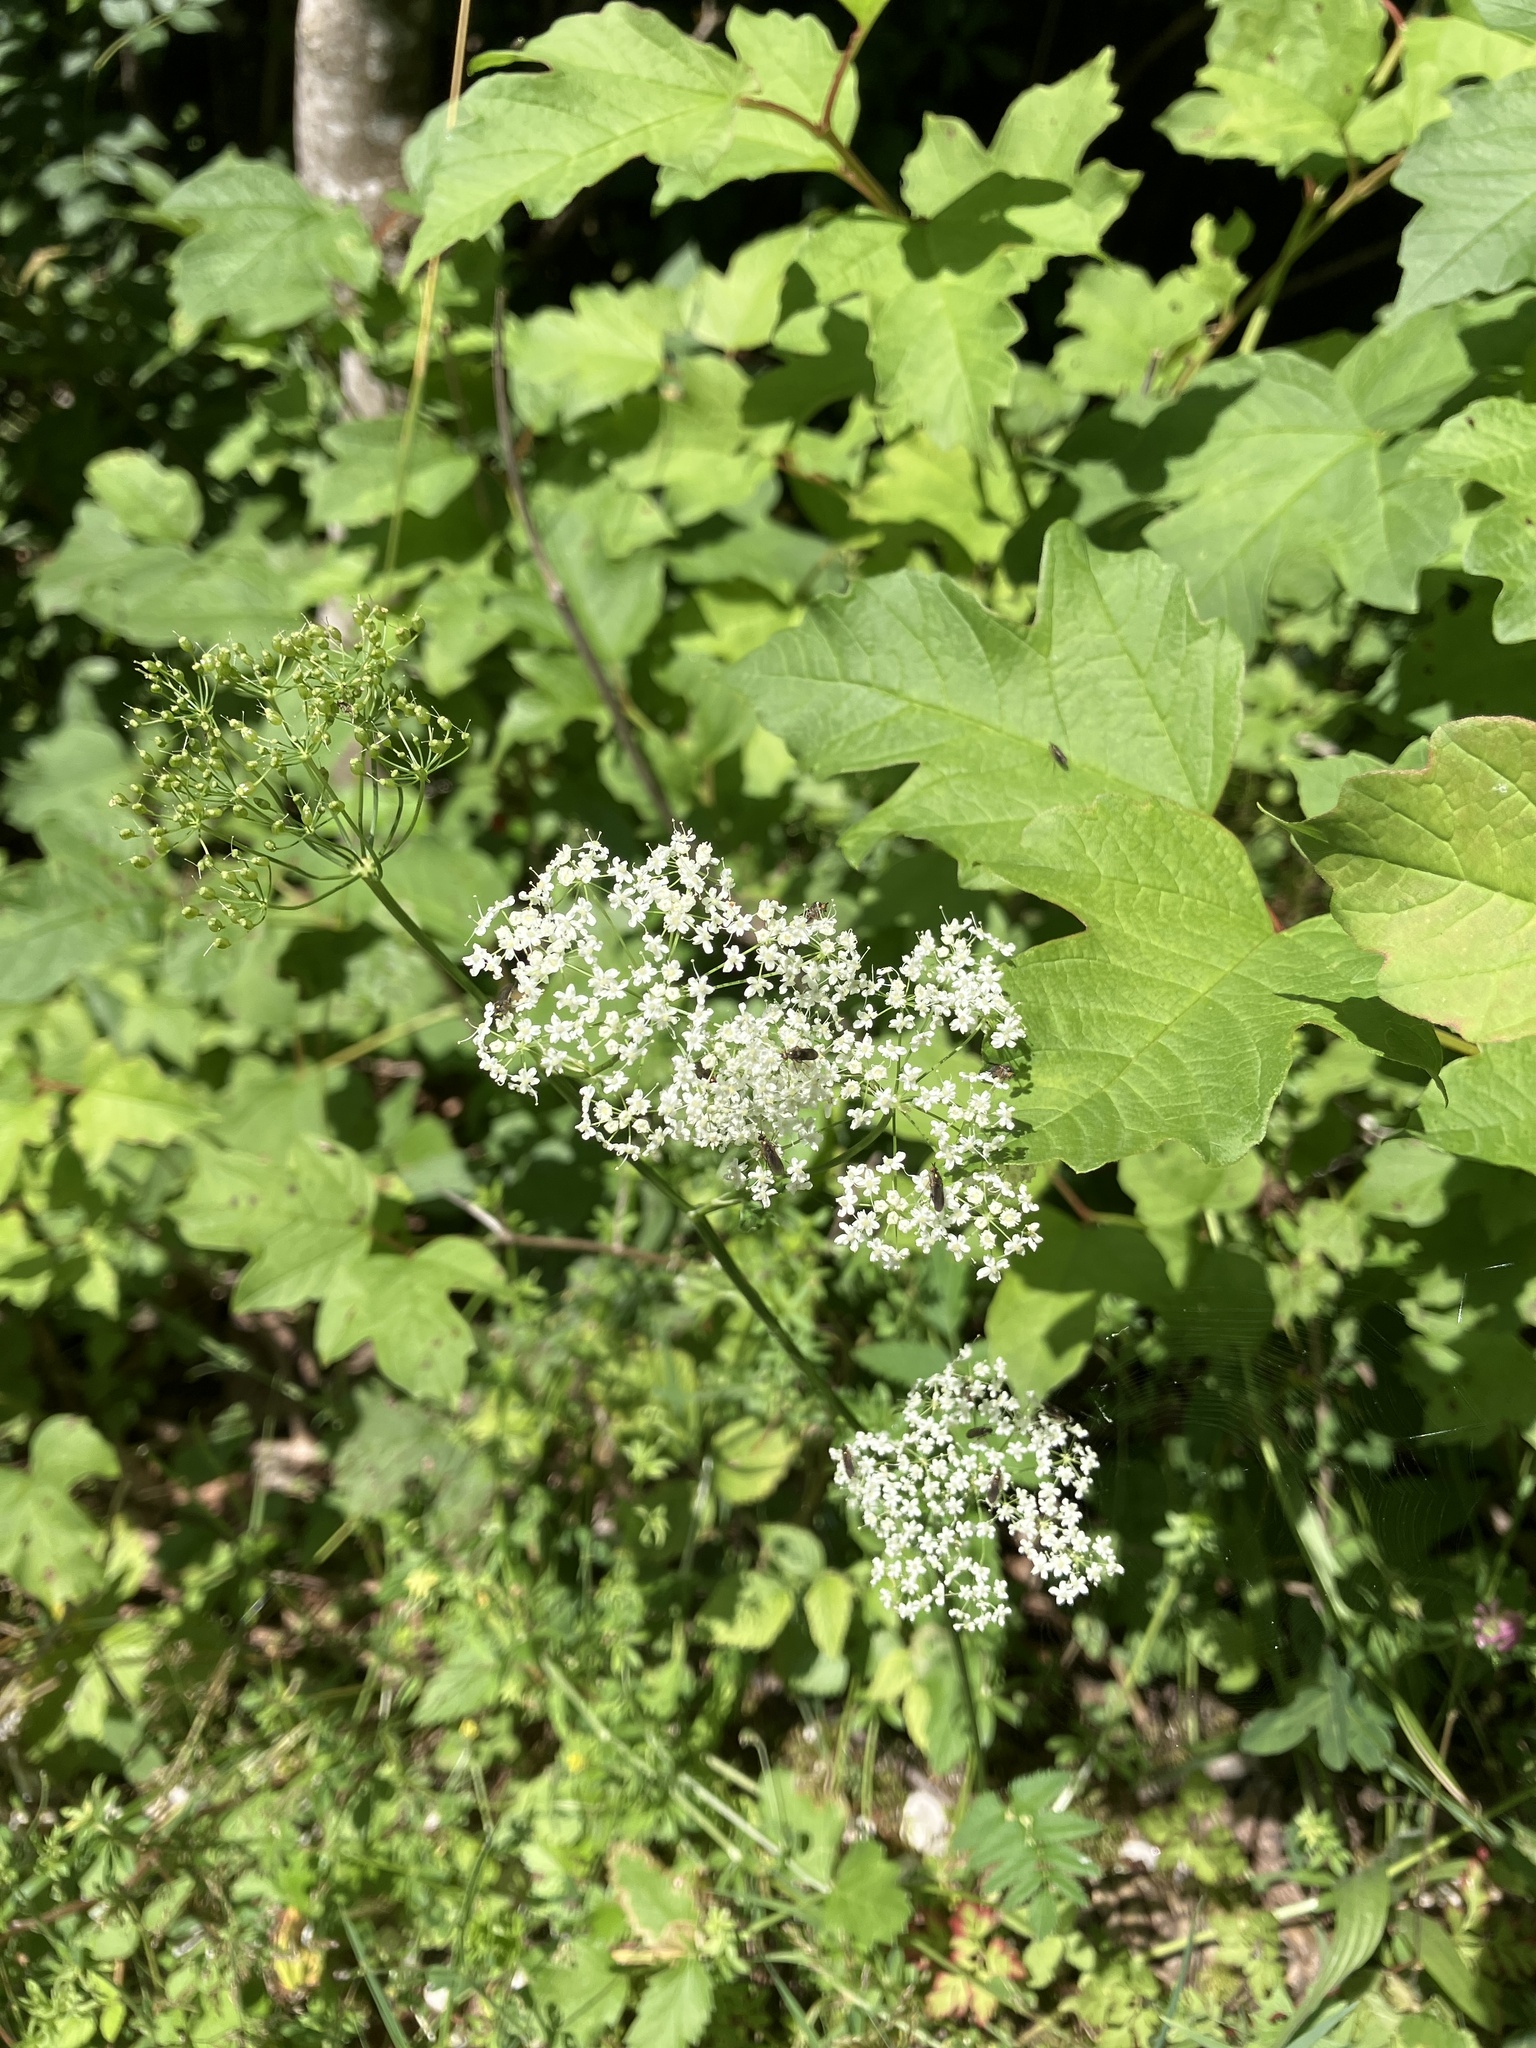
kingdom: Plantae
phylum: Tracheophyta
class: Magnoliopsida
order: Apiales
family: Apiaceae
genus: Pimpinella
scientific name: Pimpinella major
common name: Greater burnet-saxifrage
